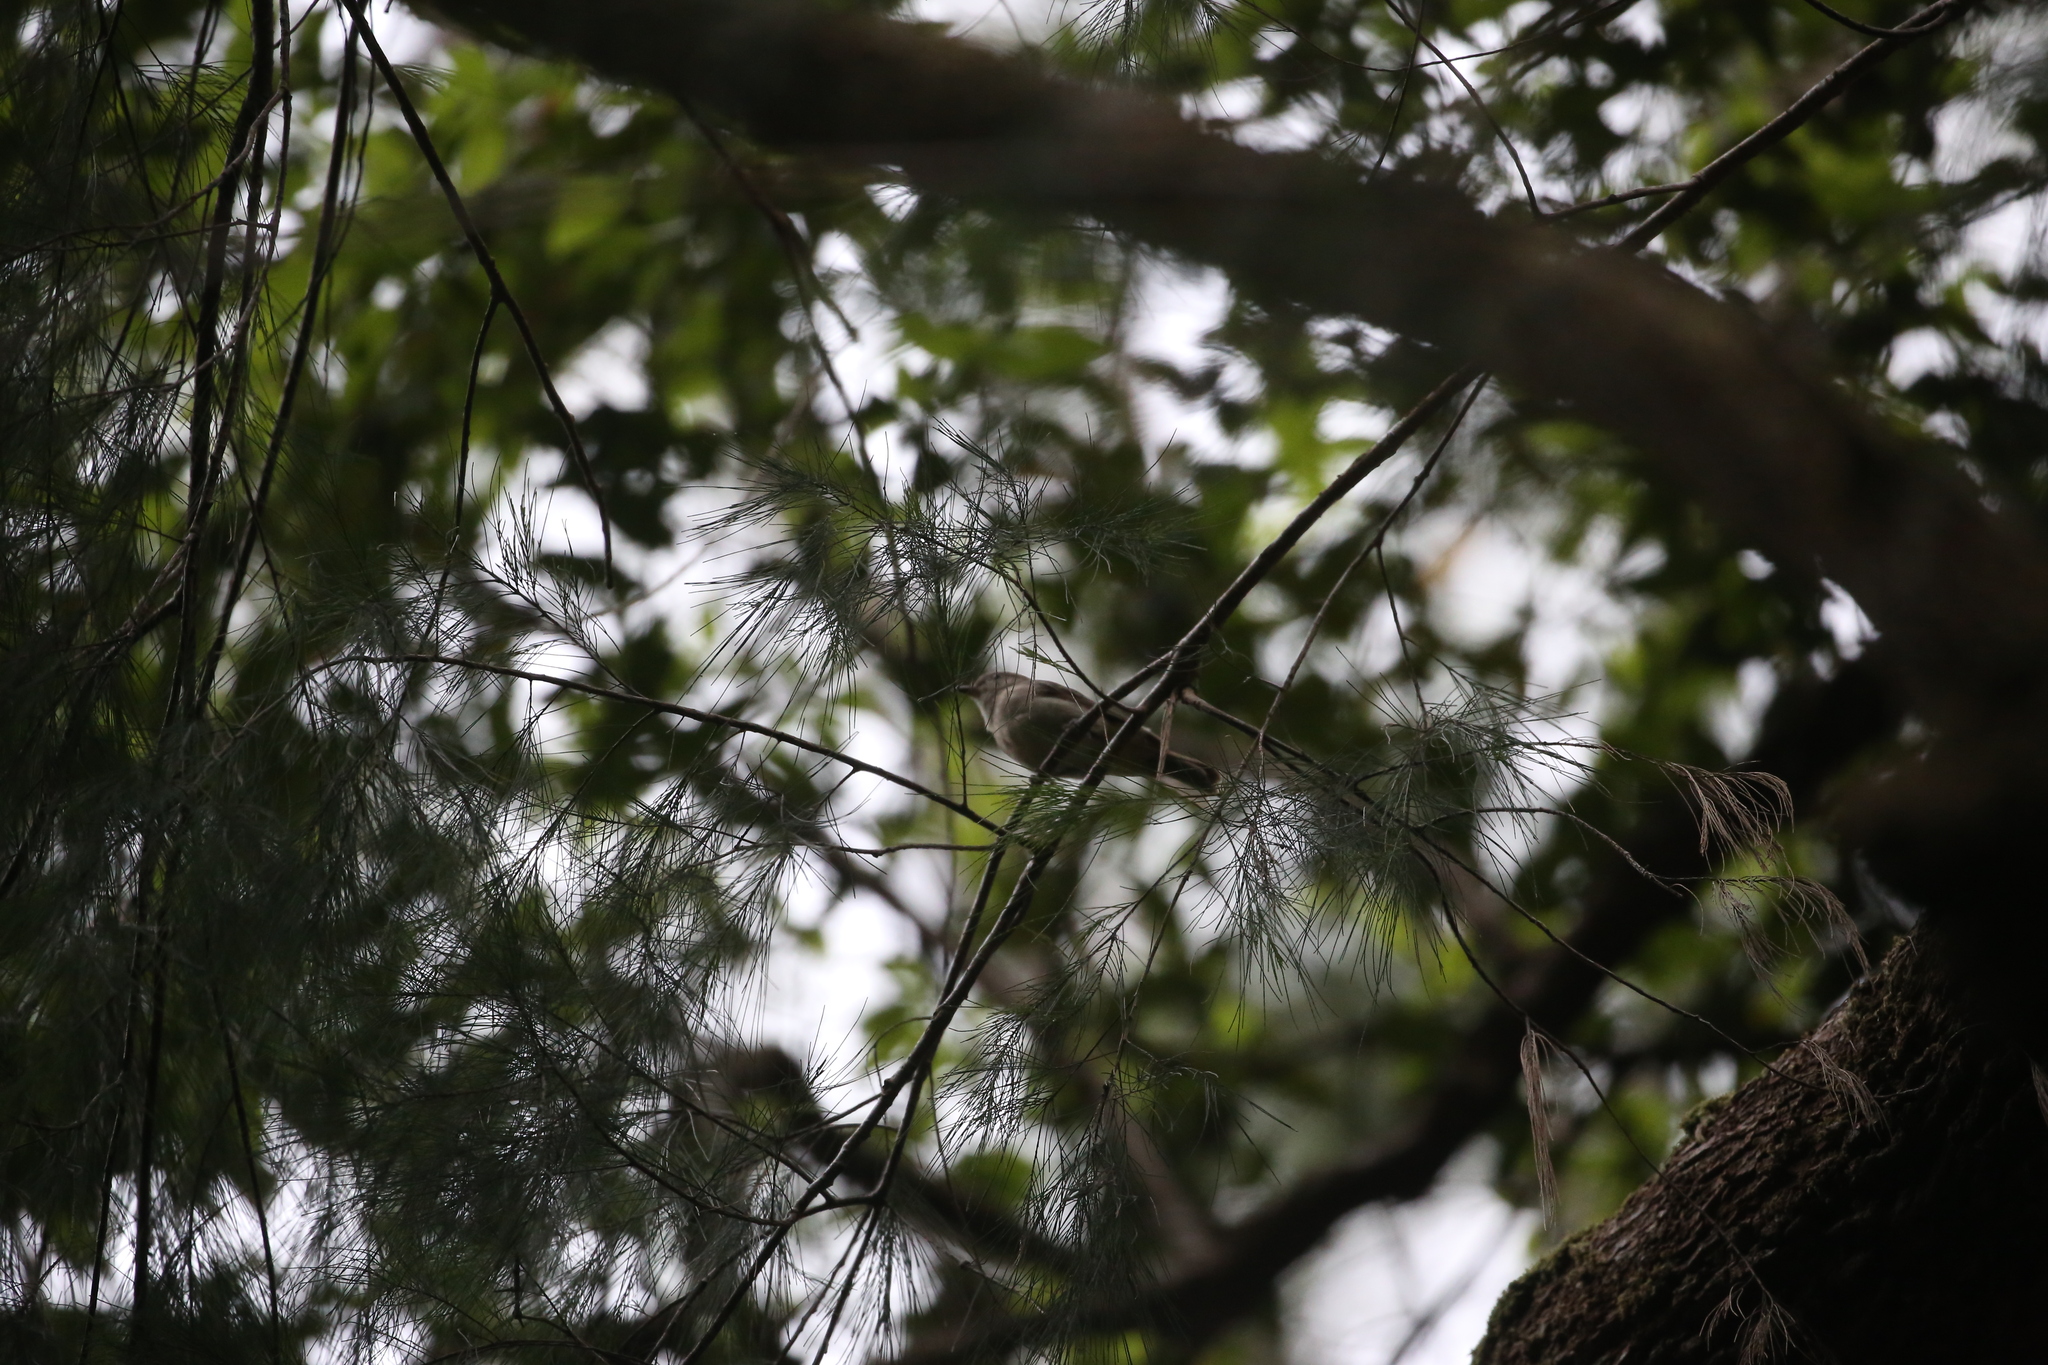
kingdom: Animalia
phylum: Chordata
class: Aves
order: Passeriformes
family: Pachycephalidae
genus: Pachycephala
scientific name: Pachycephala pectoralis
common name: Australian golden whistler
